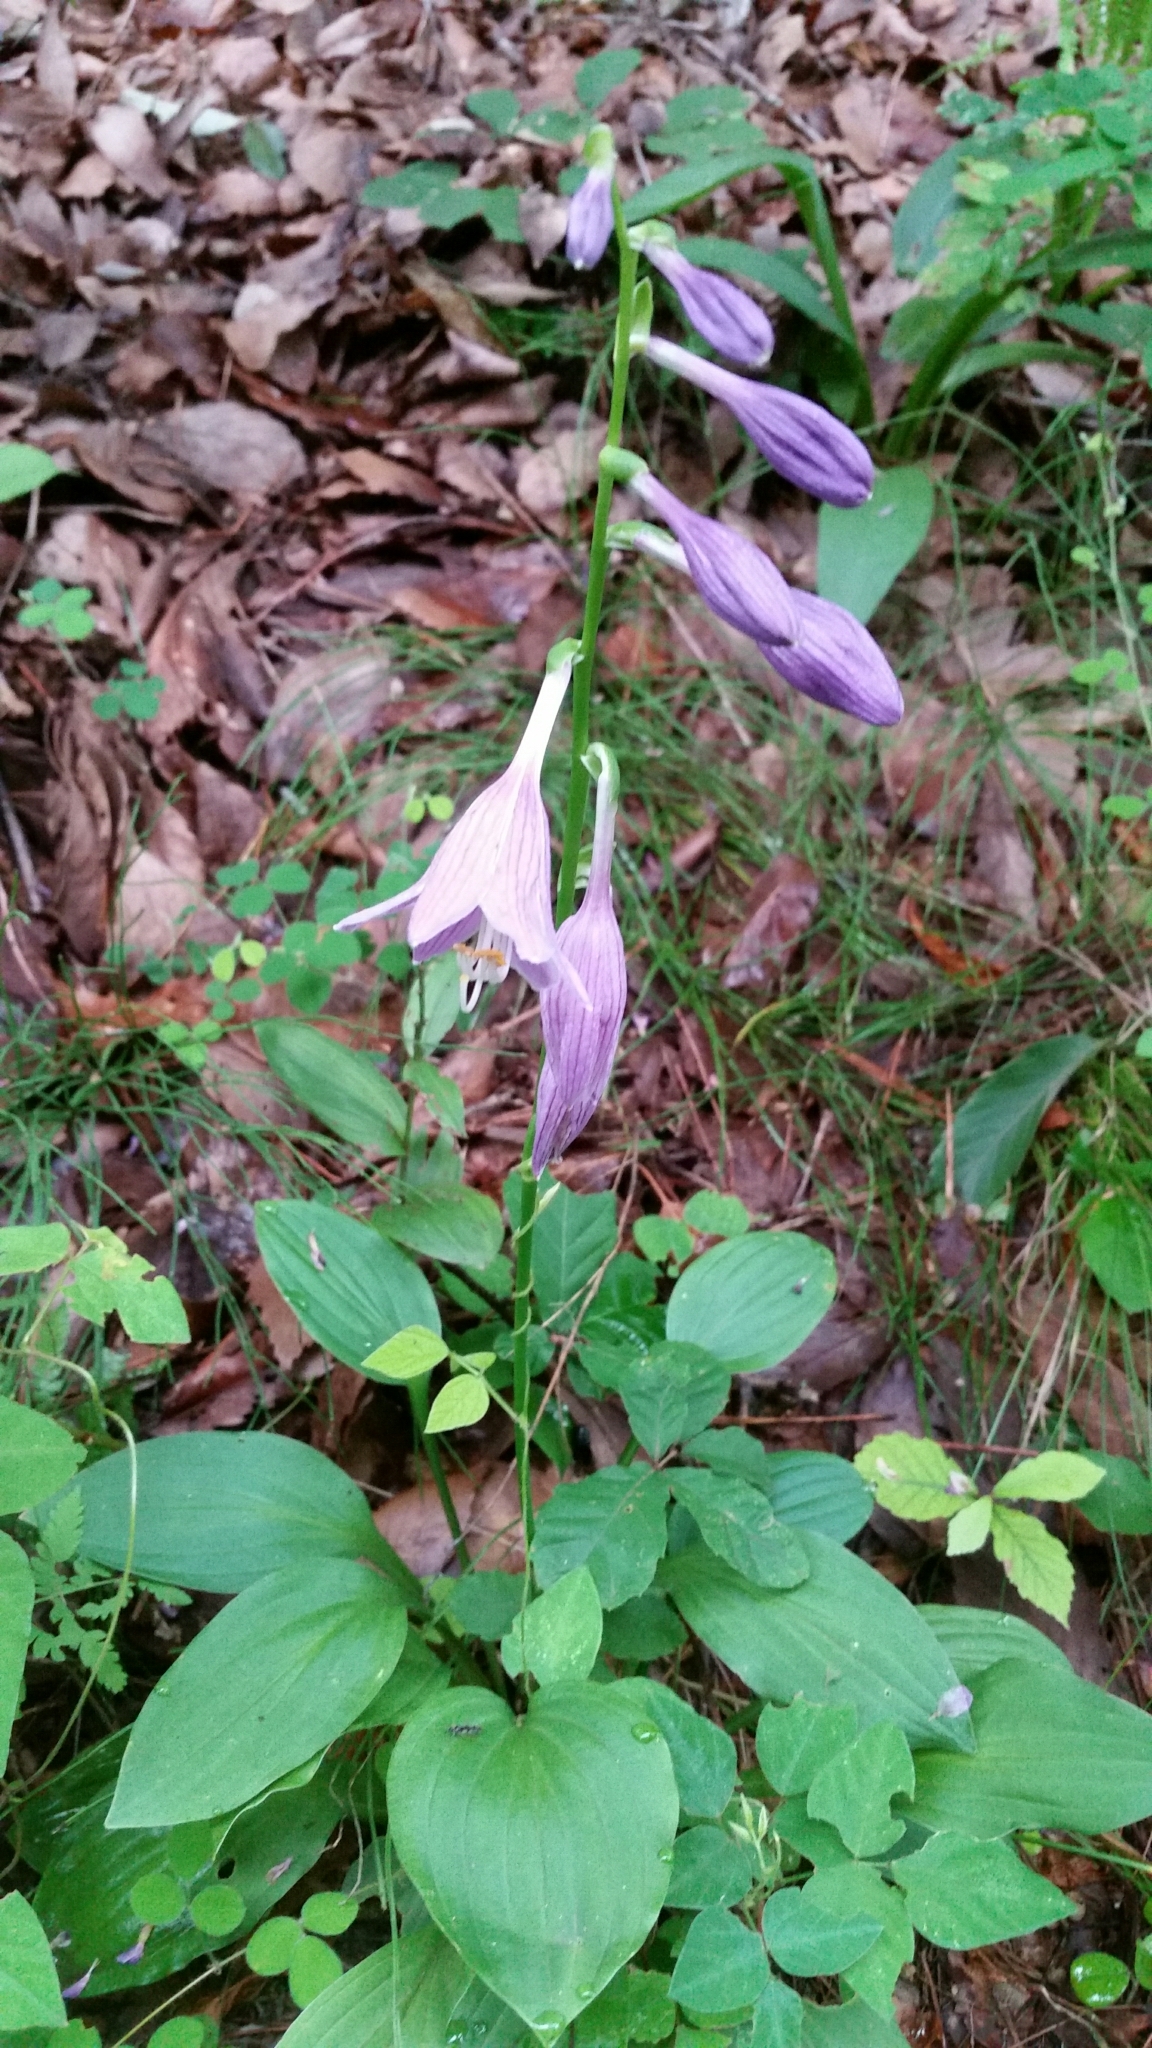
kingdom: Plantae
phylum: Tracheophyta
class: Liliopsida
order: Asparagales
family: Asparagaceae
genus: Hosta
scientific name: Hosta sieboldii
